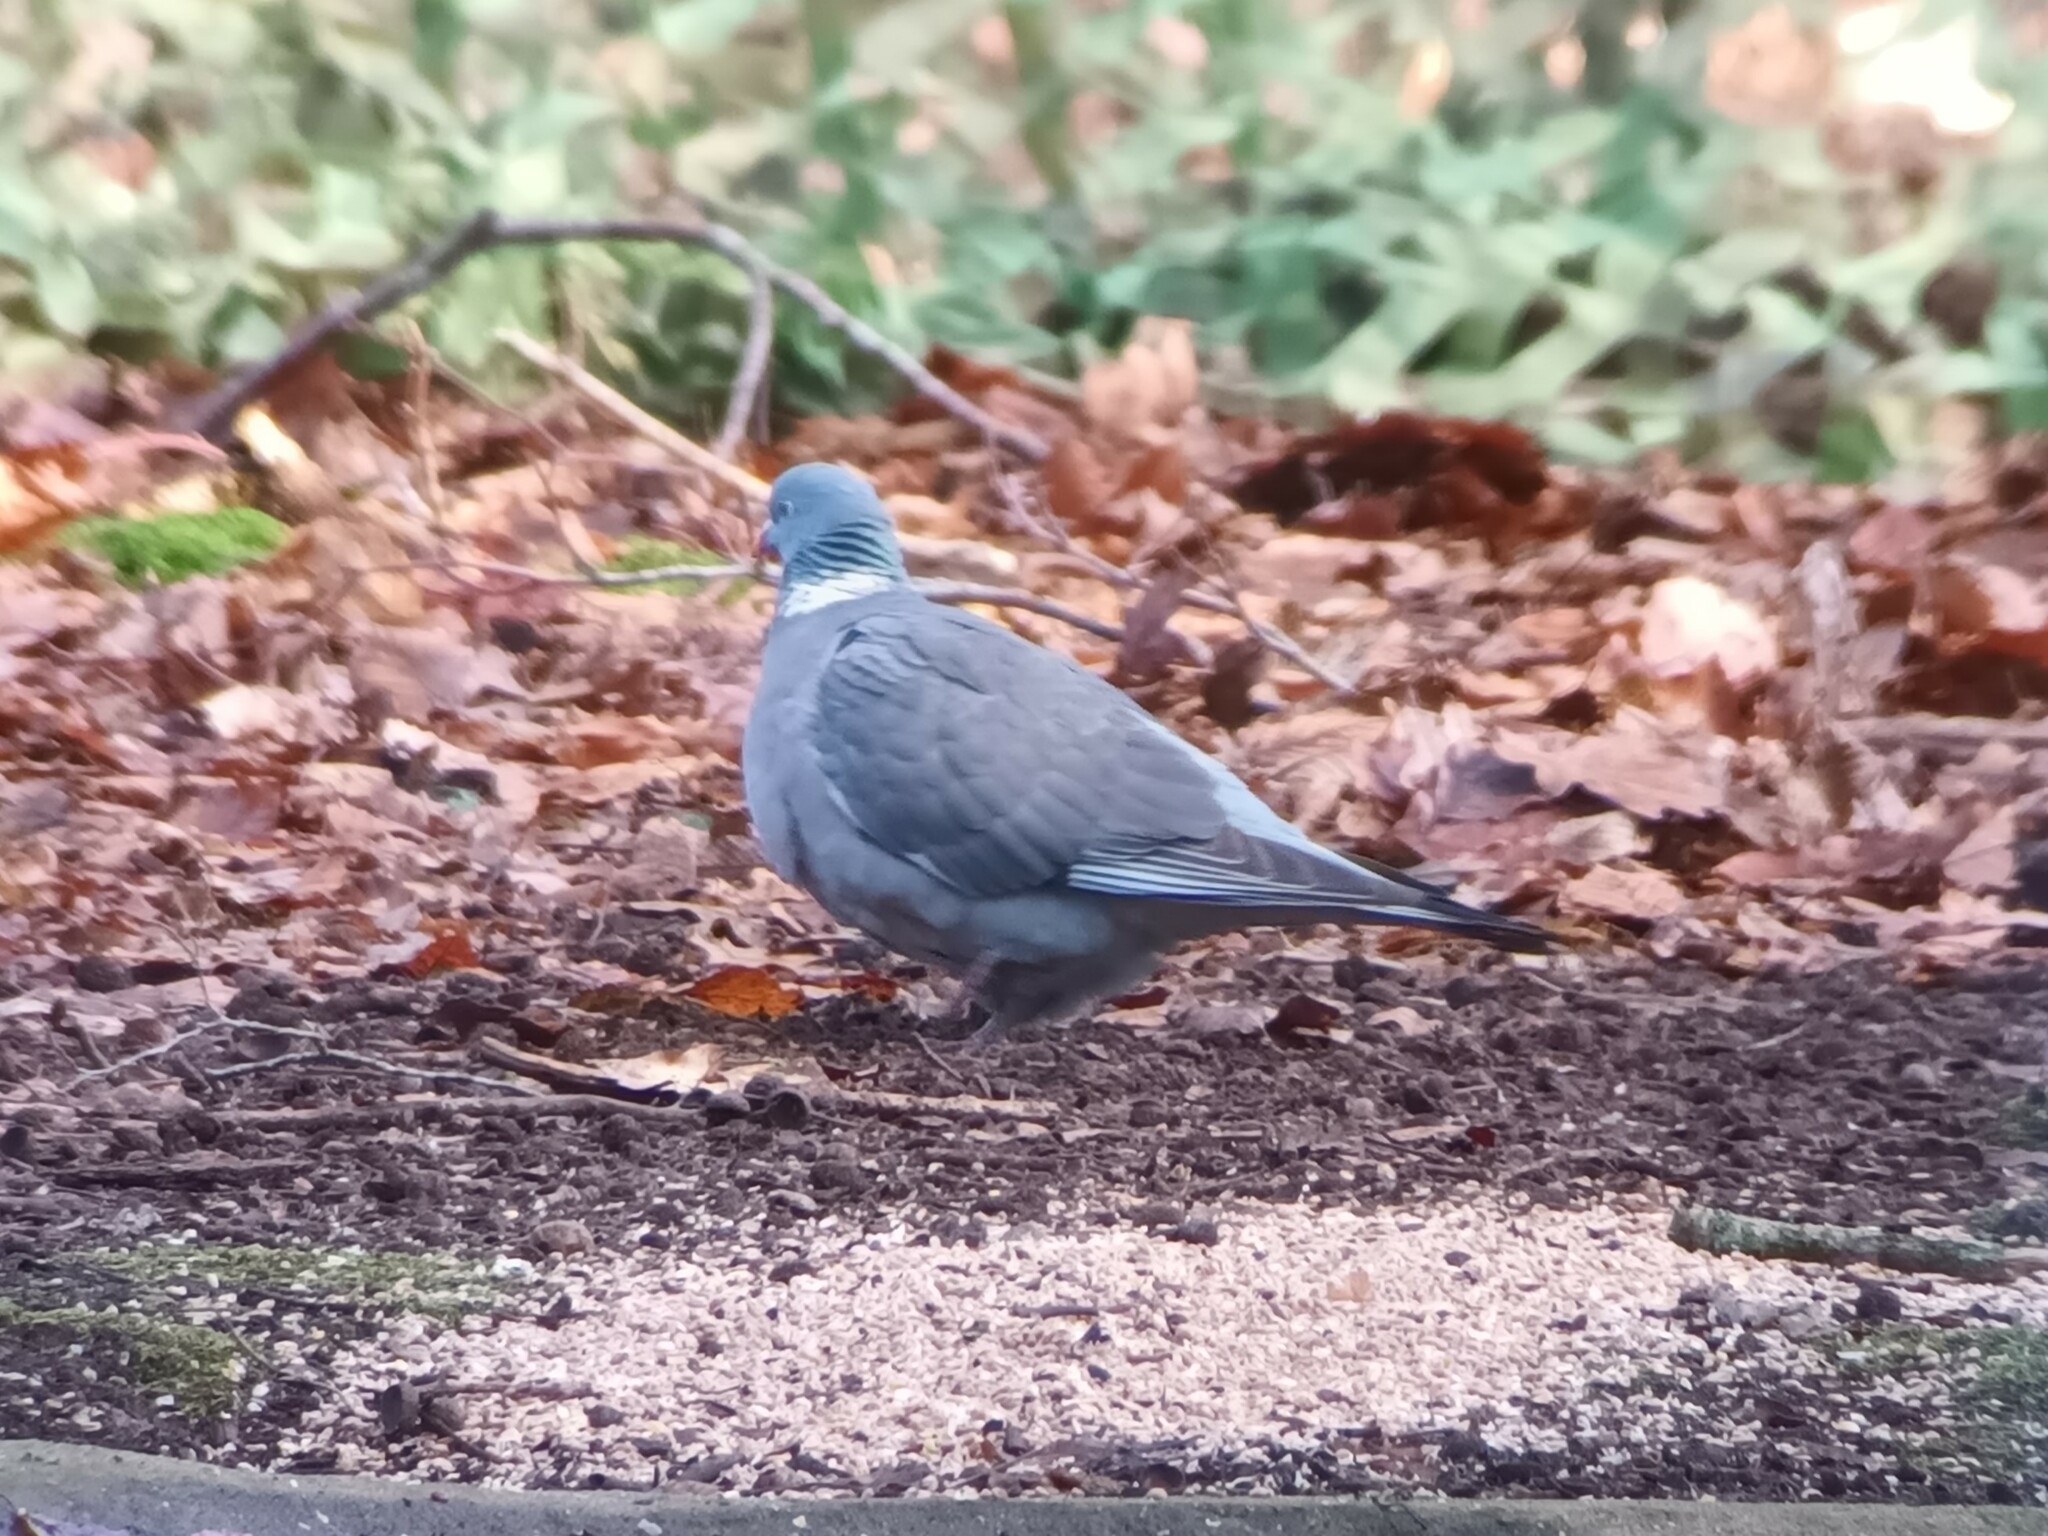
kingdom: Animalia
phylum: Chordata
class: Aves
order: Columbiformes
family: Columbidae
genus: Columba
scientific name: Columba palumbus
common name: Common wood pigeon
